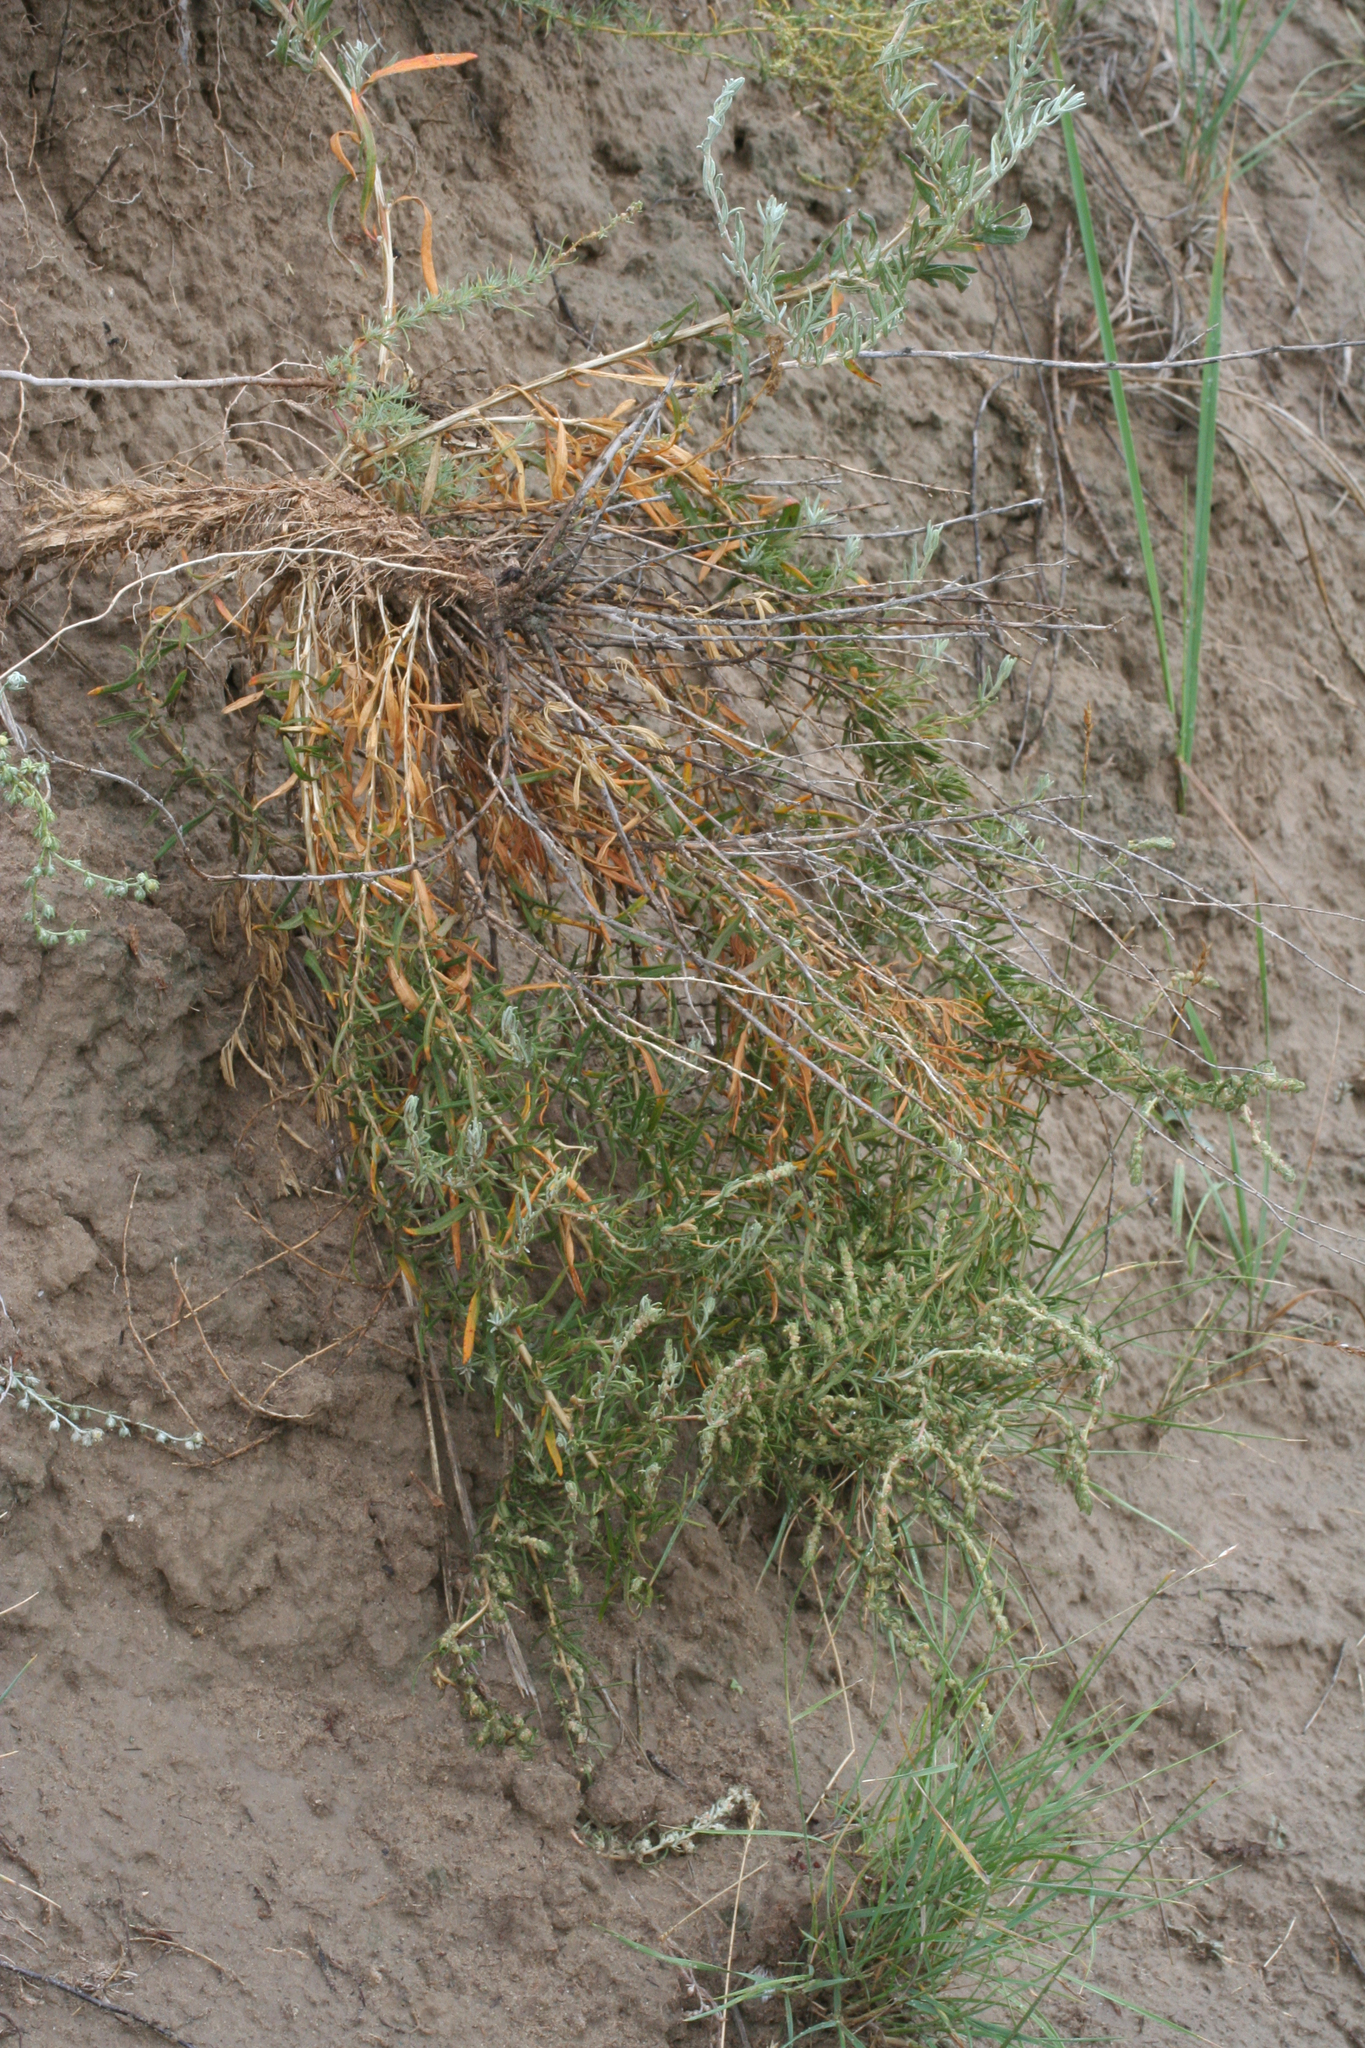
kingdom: Plantae
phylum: Tracheophyta
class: Magnoliopsida
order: Caryophyllales
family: Amaranthaceae
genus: Krascheninnikovia
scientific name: Krascheninnikovia ceratoides
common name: Pamirian winterfat
